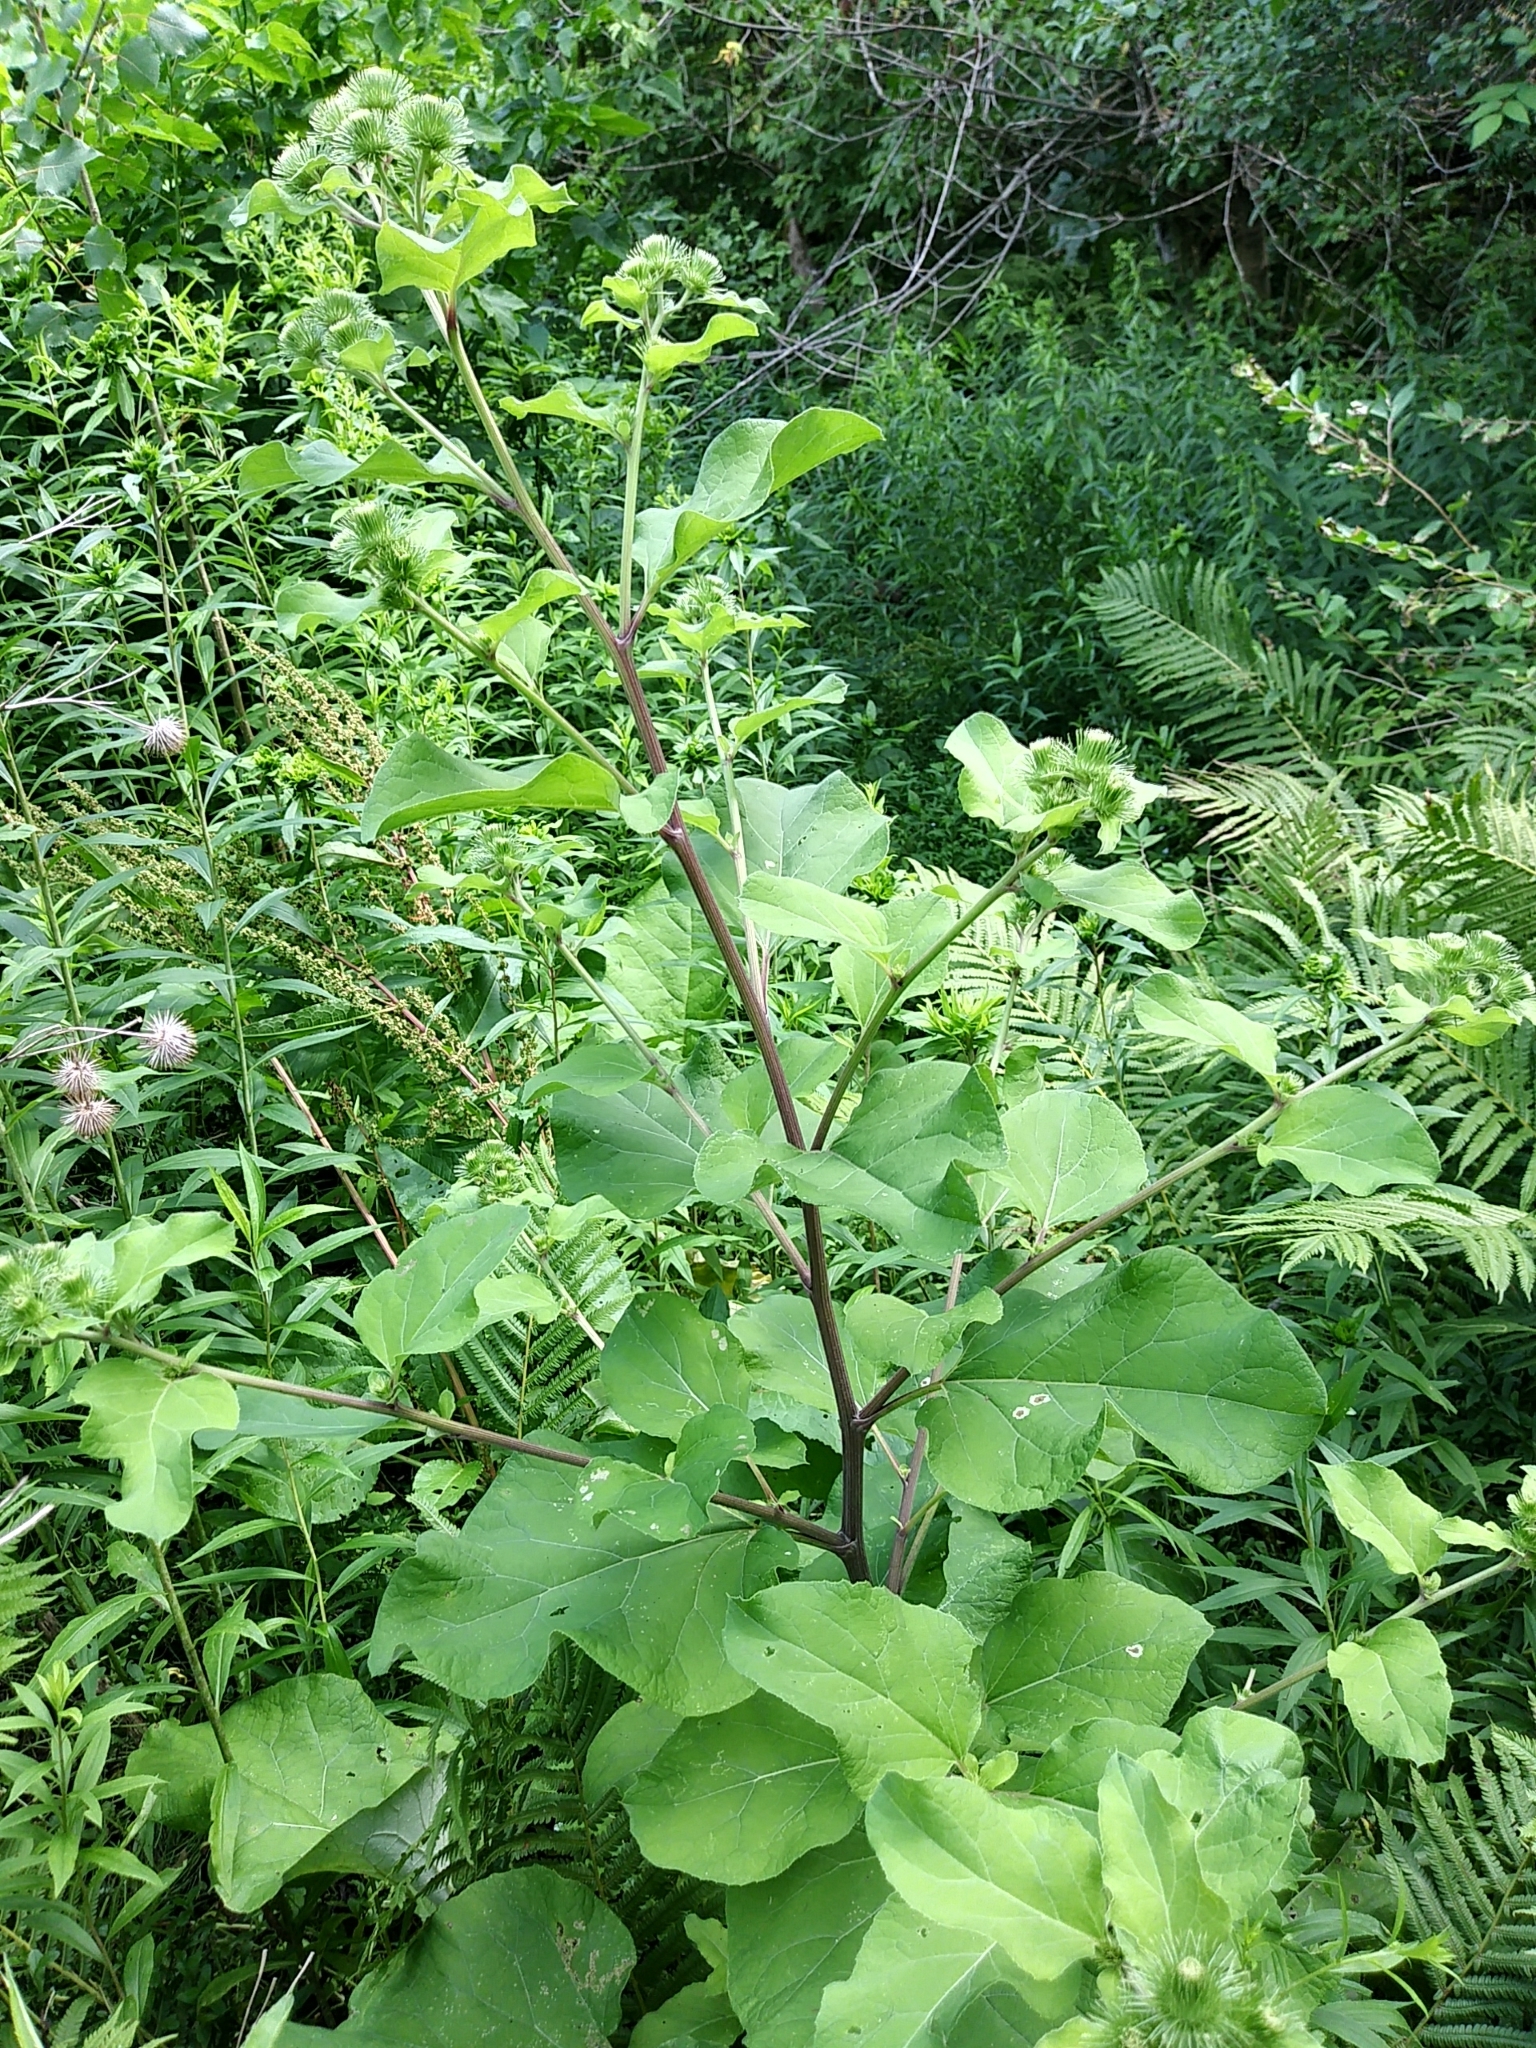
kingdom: Plantae
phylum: Tracheophyta
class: Magnoliopsida
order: Asterales
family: Asteraceae
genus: Arctium
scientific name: Arctium lappa
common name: Greater burdock
